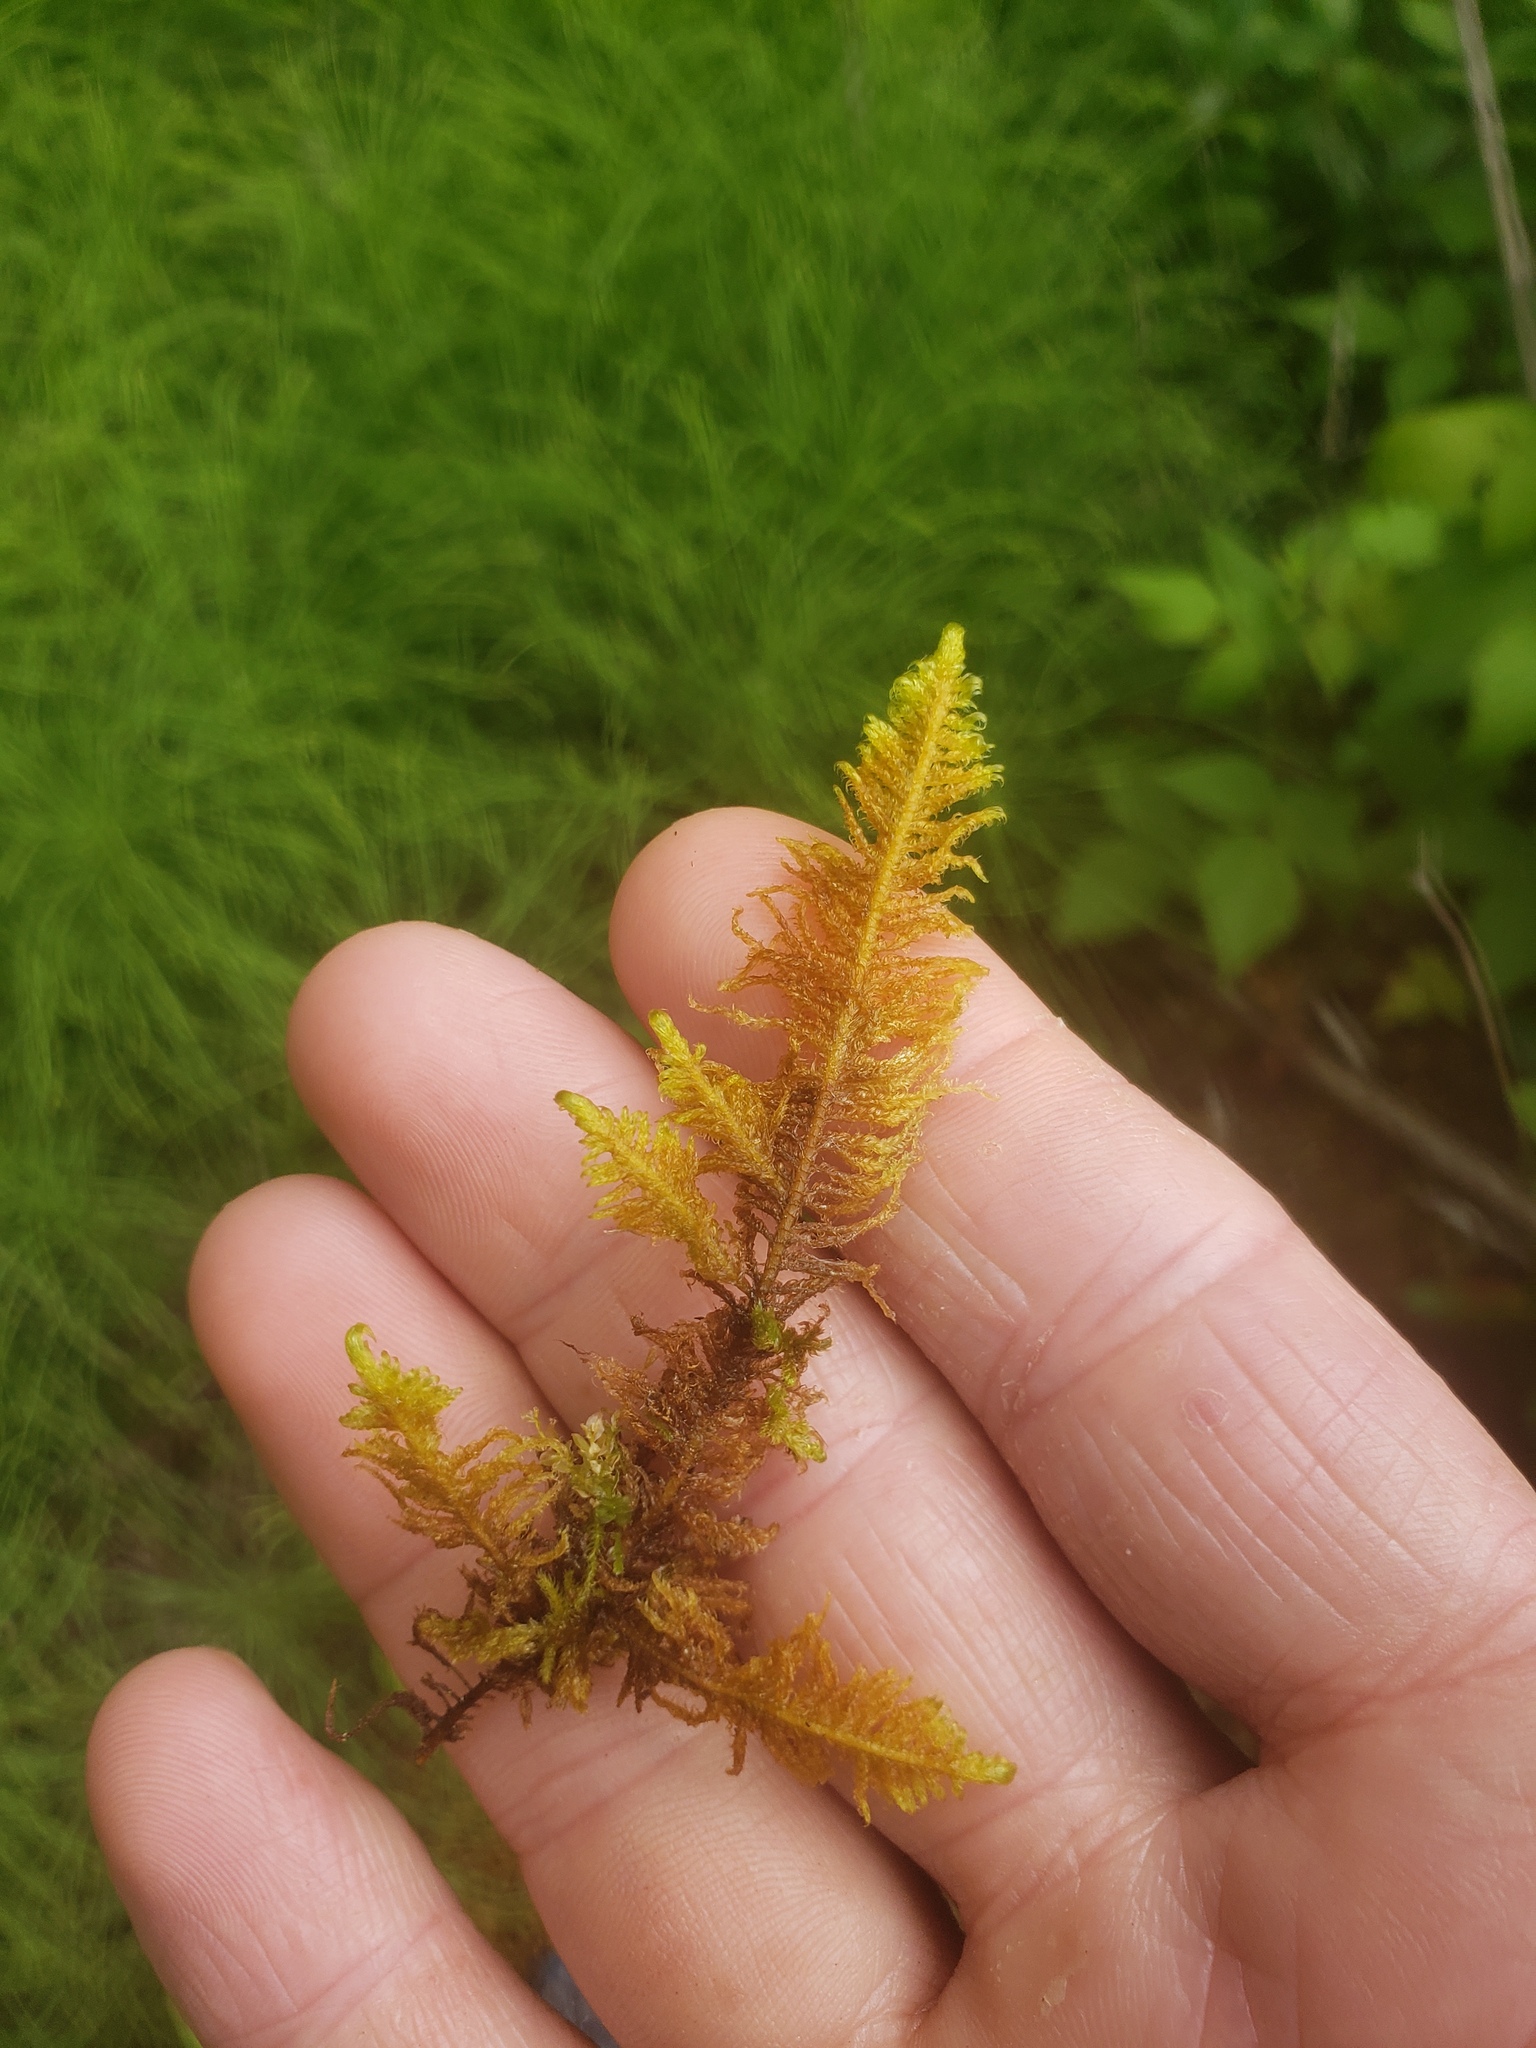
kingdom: Plantae
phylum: Bryophyta
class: Bryopsida
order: Hypnales
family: Pylaisiaceae
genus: Ptilium
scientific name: Ptilium crista-castrensis
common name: Knight's plume moss
